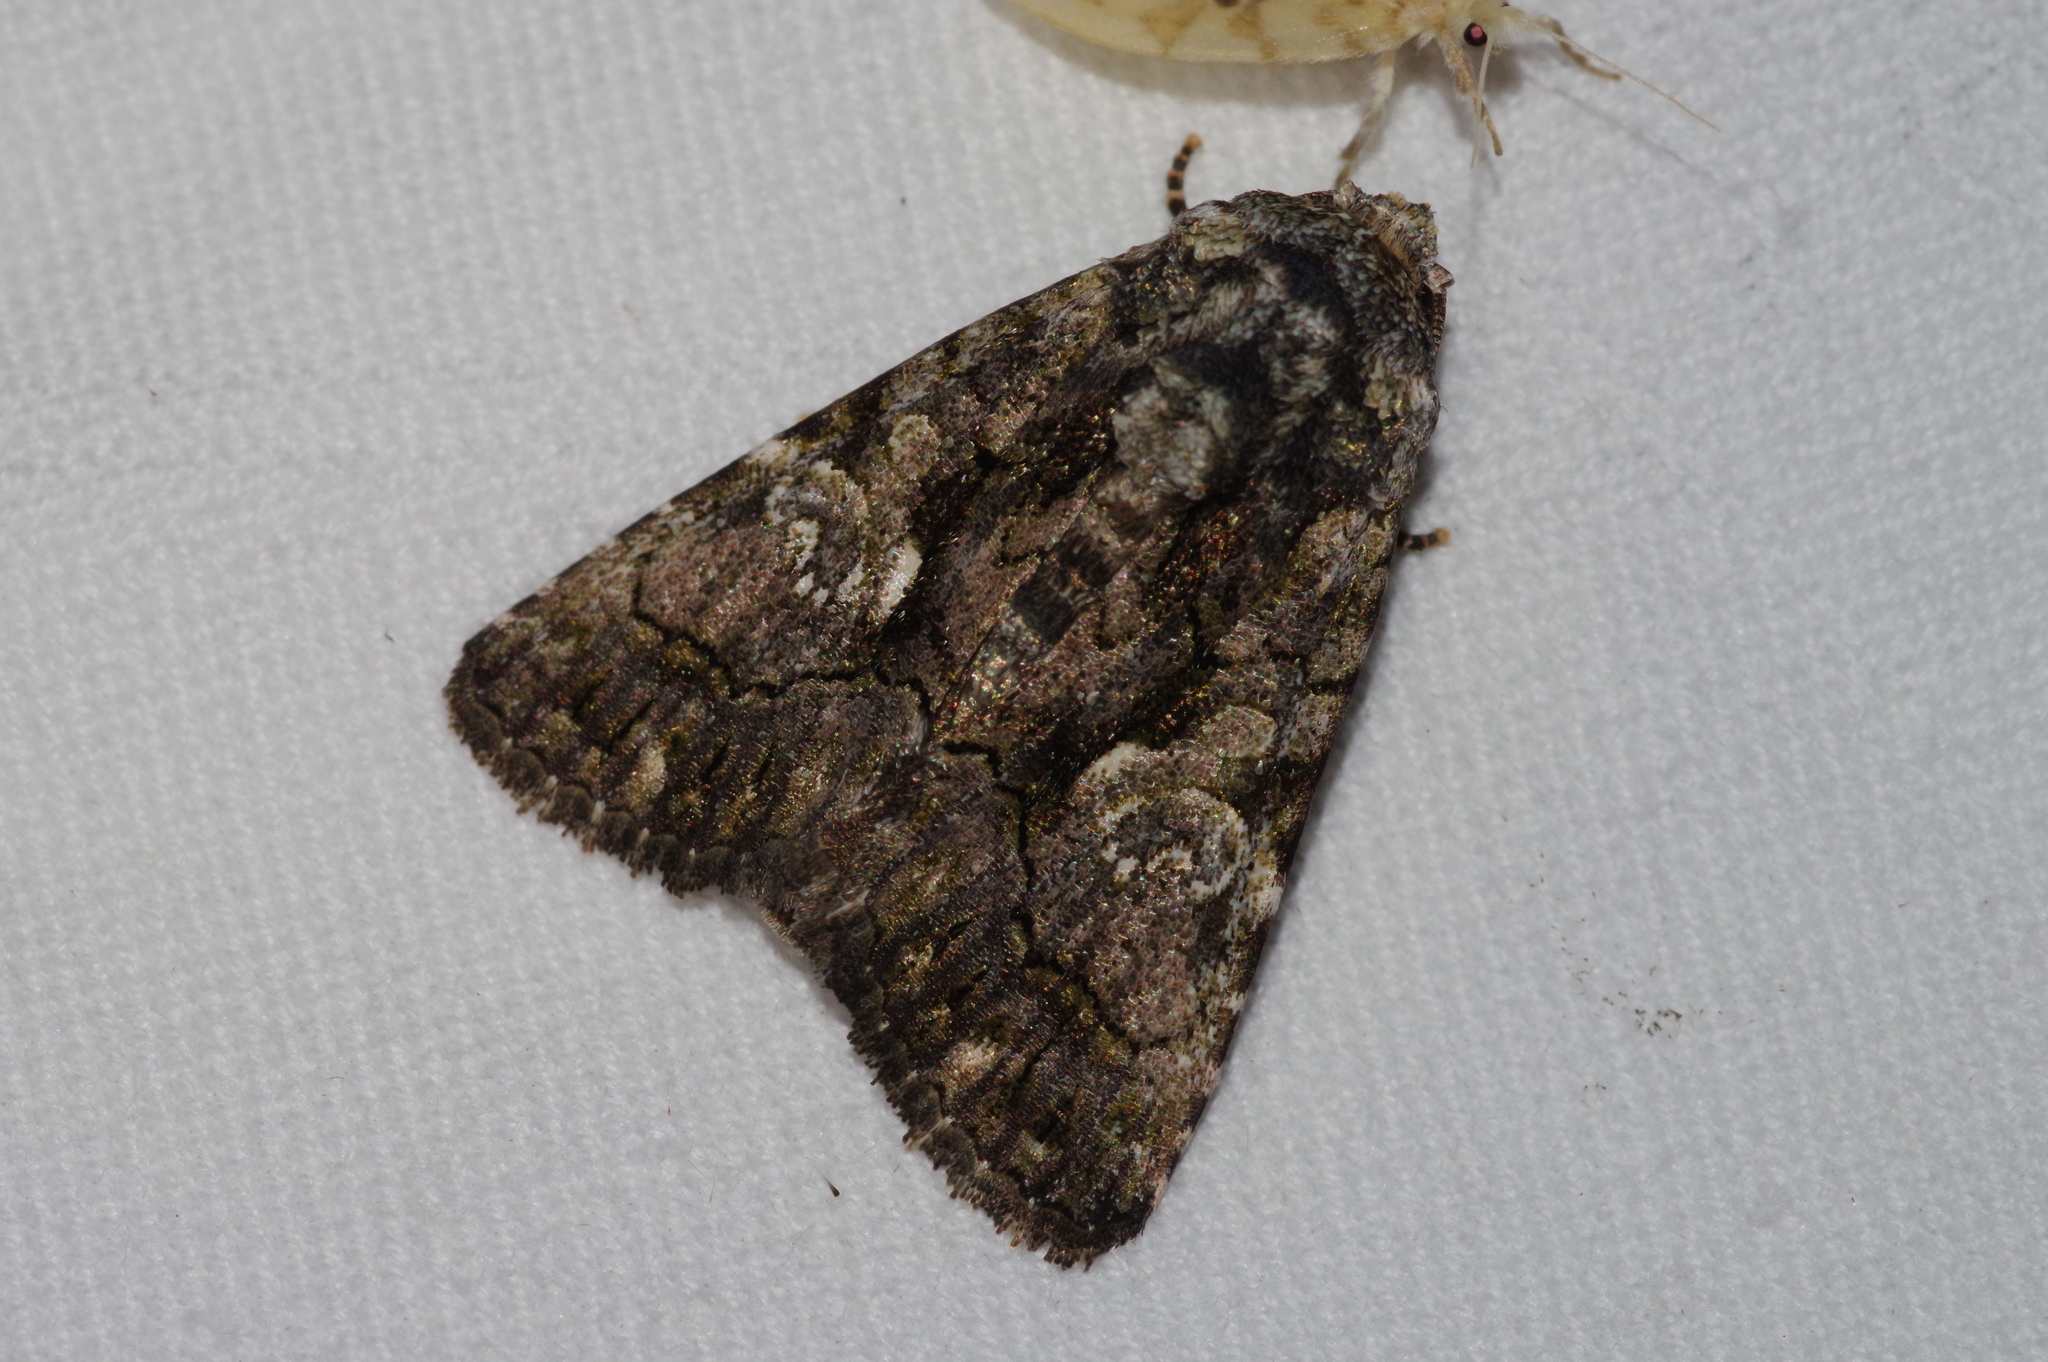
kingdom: Animalia
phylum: Arthropoda
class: Insecta
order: Lepidoptera
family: Noctuidae
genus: Aedia
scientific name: Aedia leucomelas
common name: Sorcerer
